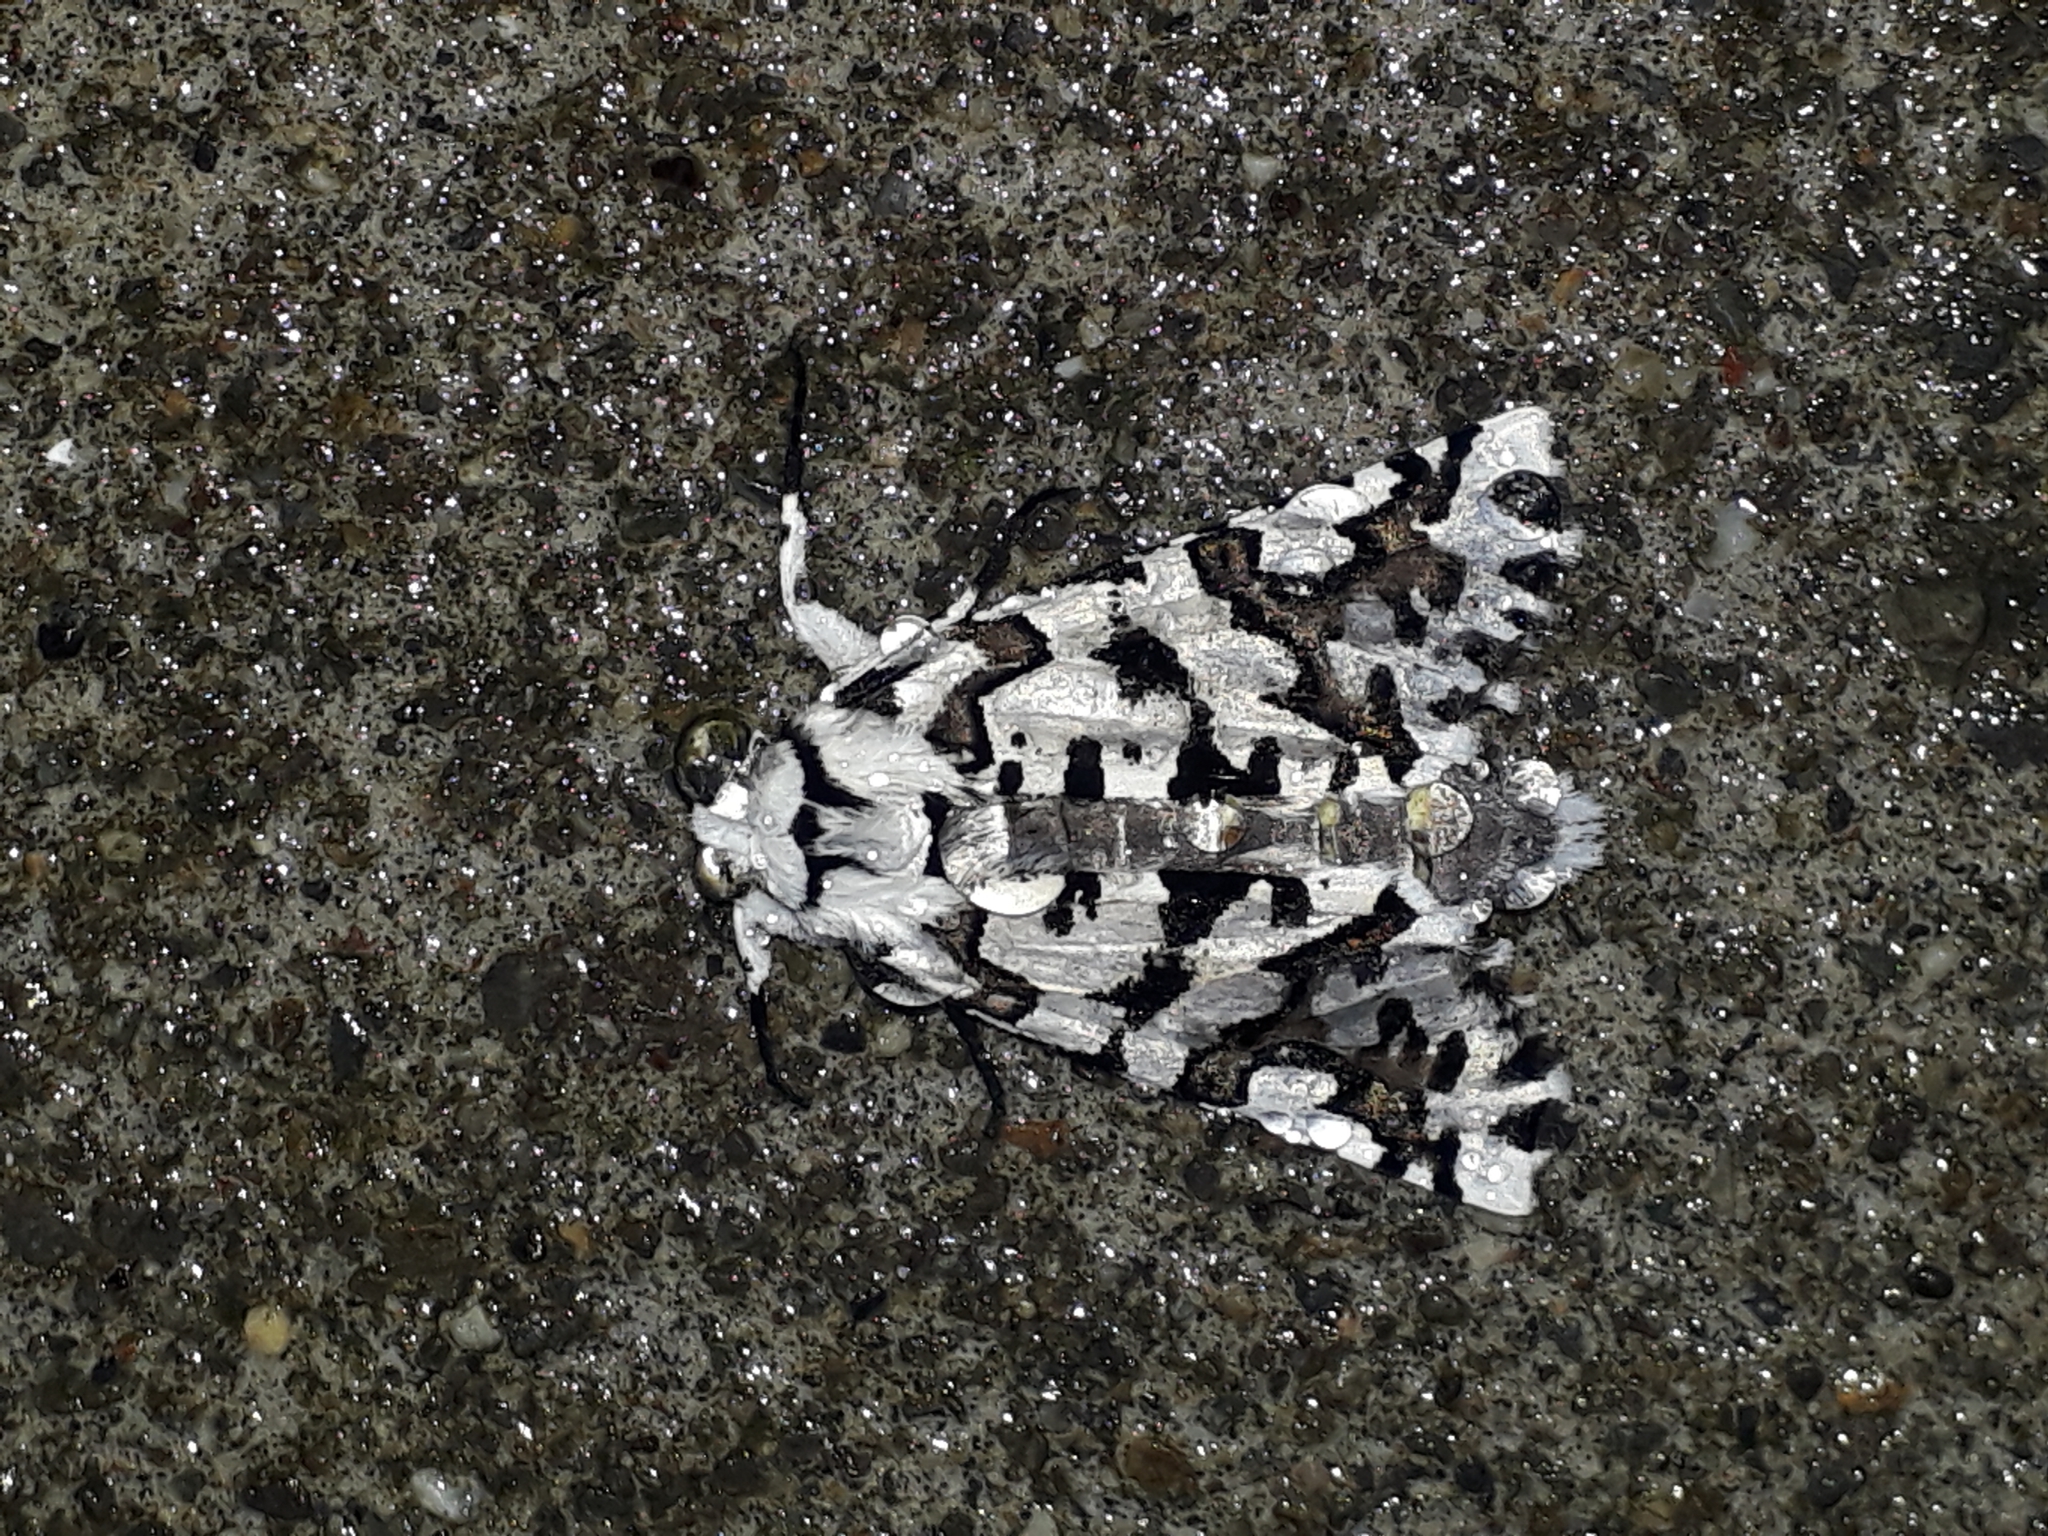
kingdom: Animalia
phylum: Arthropoda
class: Insecta
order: Lepidoptera
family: Geometridae
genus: Declana
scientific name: Declana
